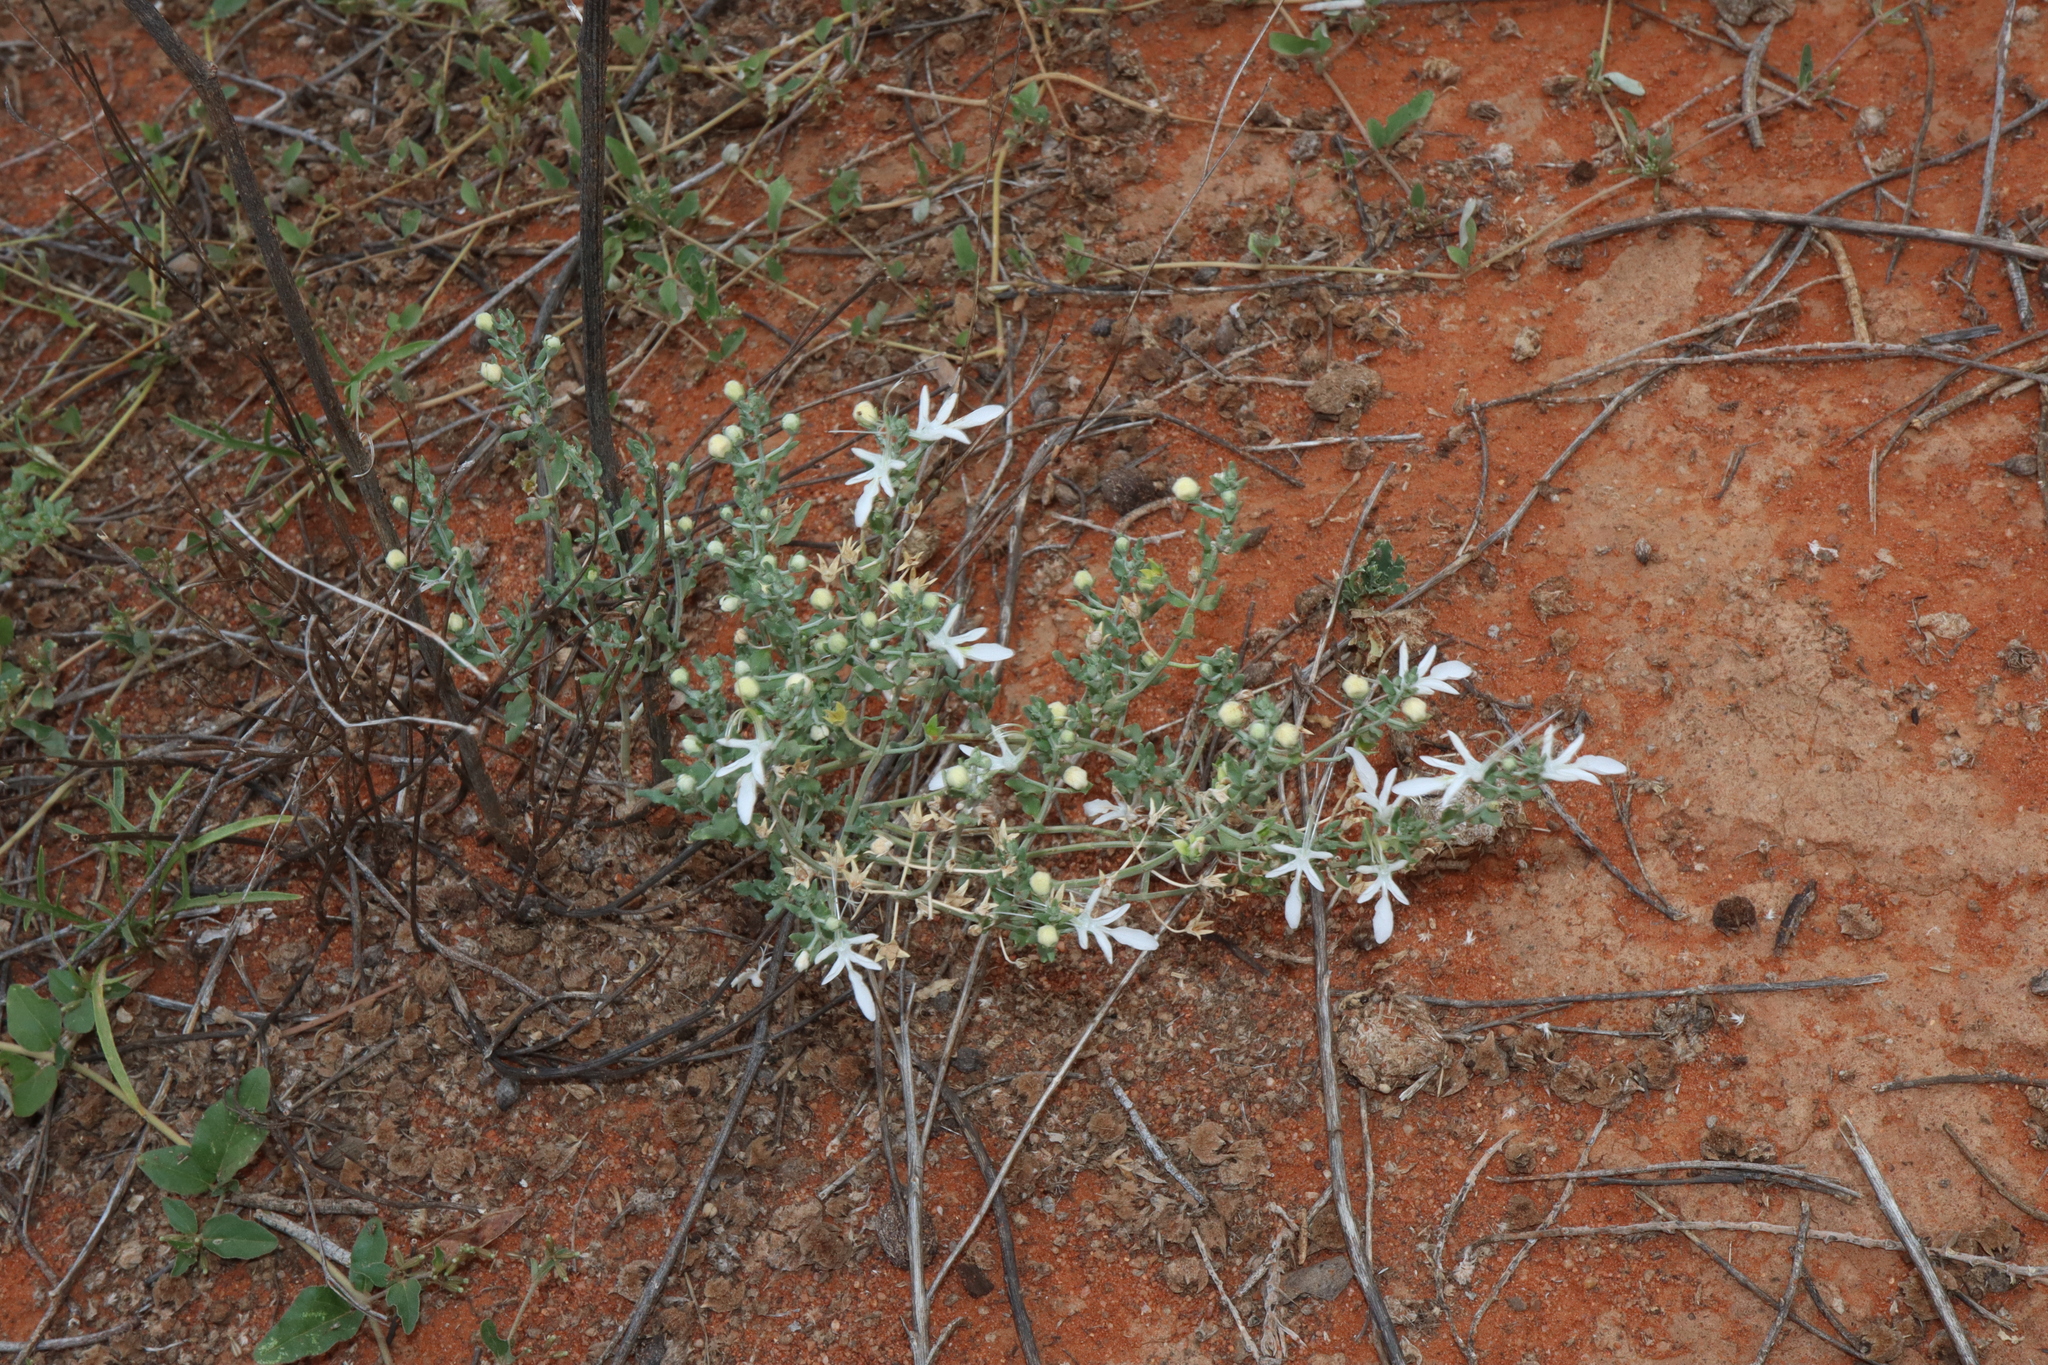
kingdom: Plantae
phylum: Tracheophyta
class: Magnoliopsida
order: Lamiales
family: Lamiaceae
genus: Teucrium
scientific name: Teucrium racemosum
